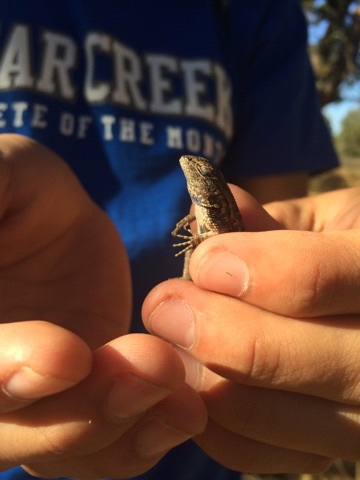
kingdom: Animalia
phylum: Chordata
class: Squamata
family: Phrynosomatidae
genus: Sceloporus
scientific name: Sceloporus occidentalis
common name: Western fence lizard
